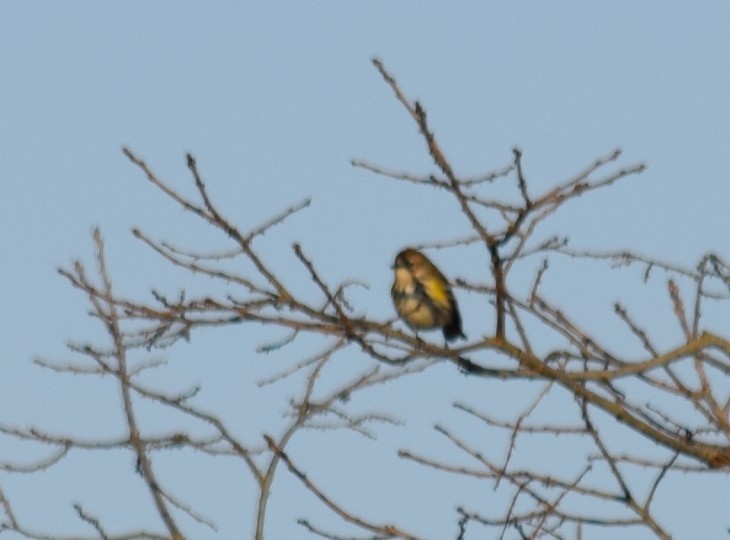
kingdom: Animalia
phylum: Chordata
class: Aves
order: Passeriformes
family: Parulidae
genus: Setophaga
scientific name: Setophaga coronata
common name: Myrtle warbler
